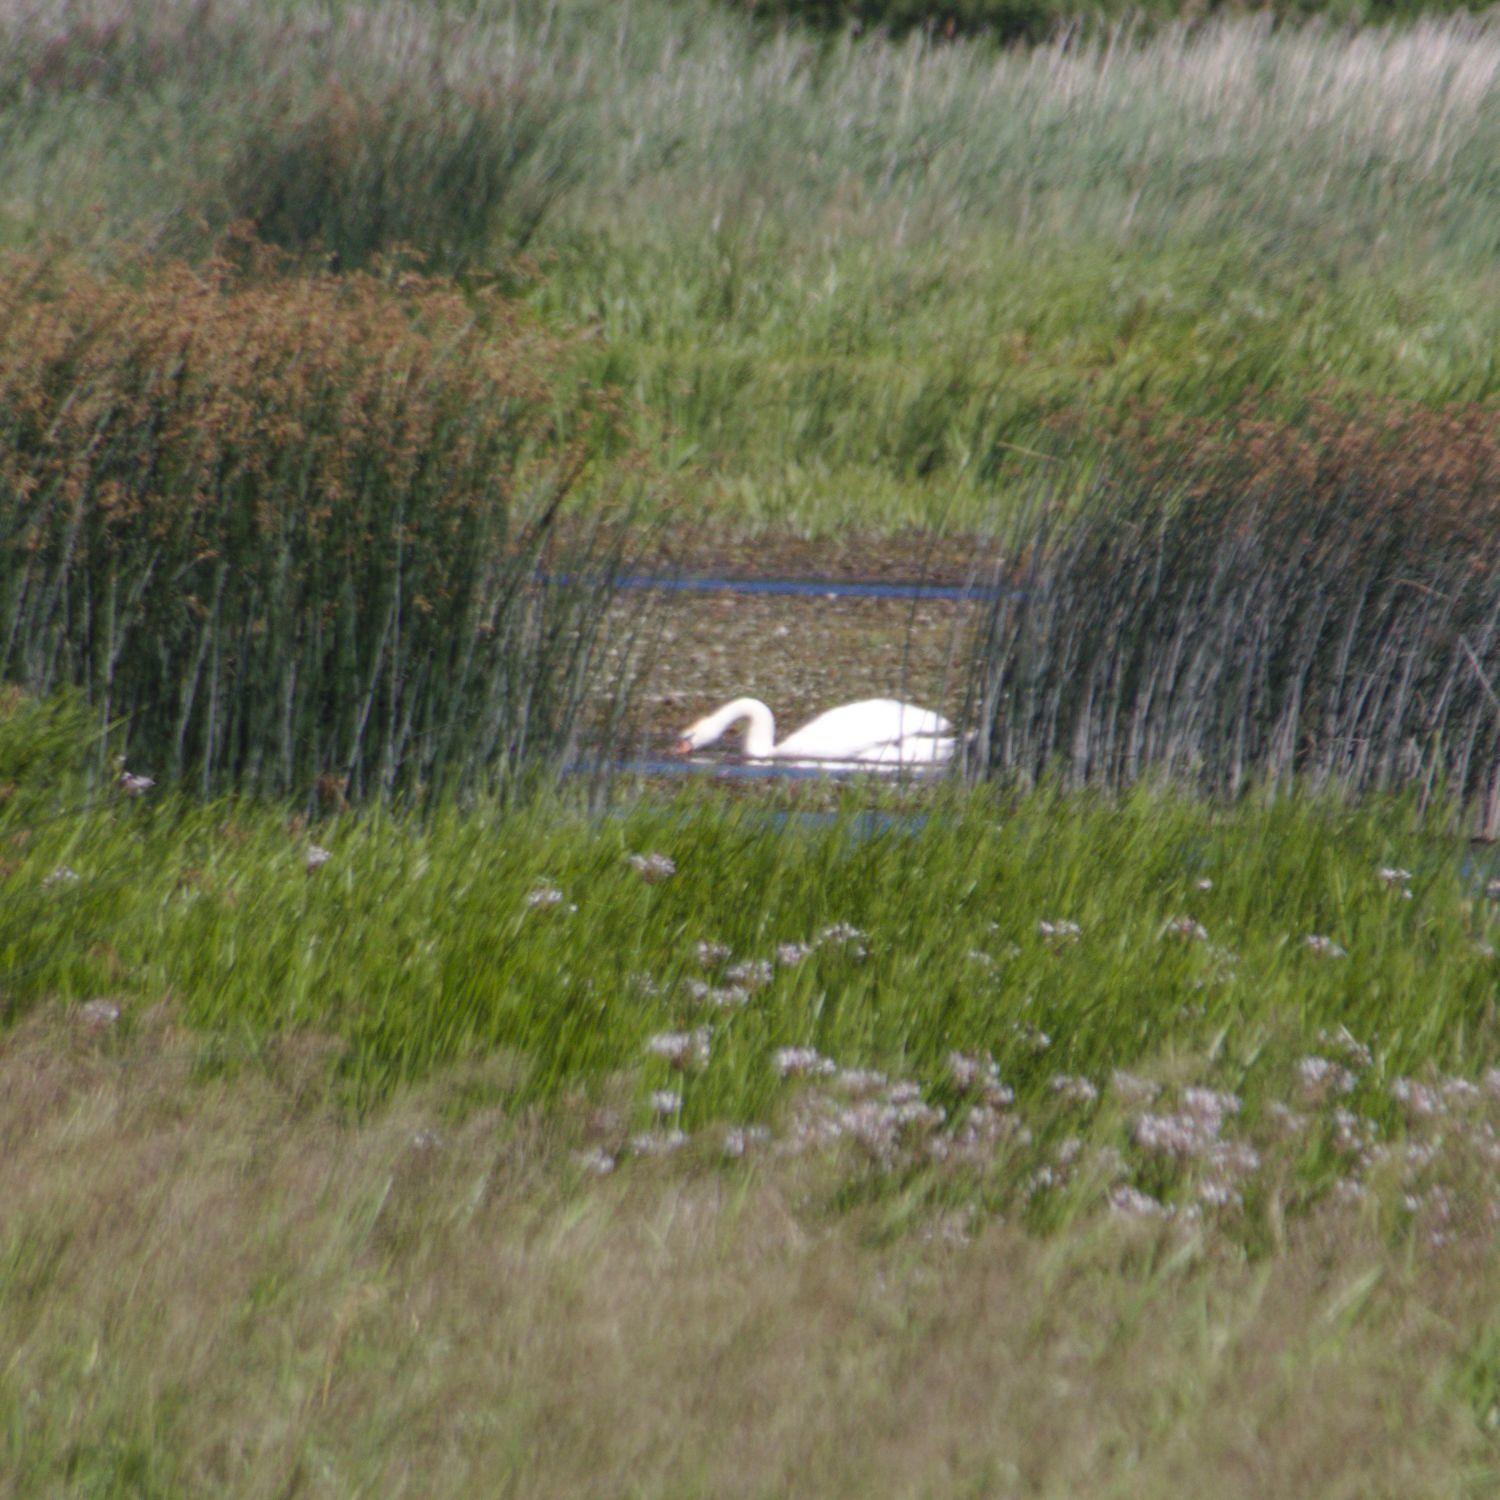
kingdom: Animalia
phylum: Chordata
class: Aves
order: Anseriformes
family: Anatidae
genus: Cygnus
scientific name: Cygnus olor
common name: Mute swan
